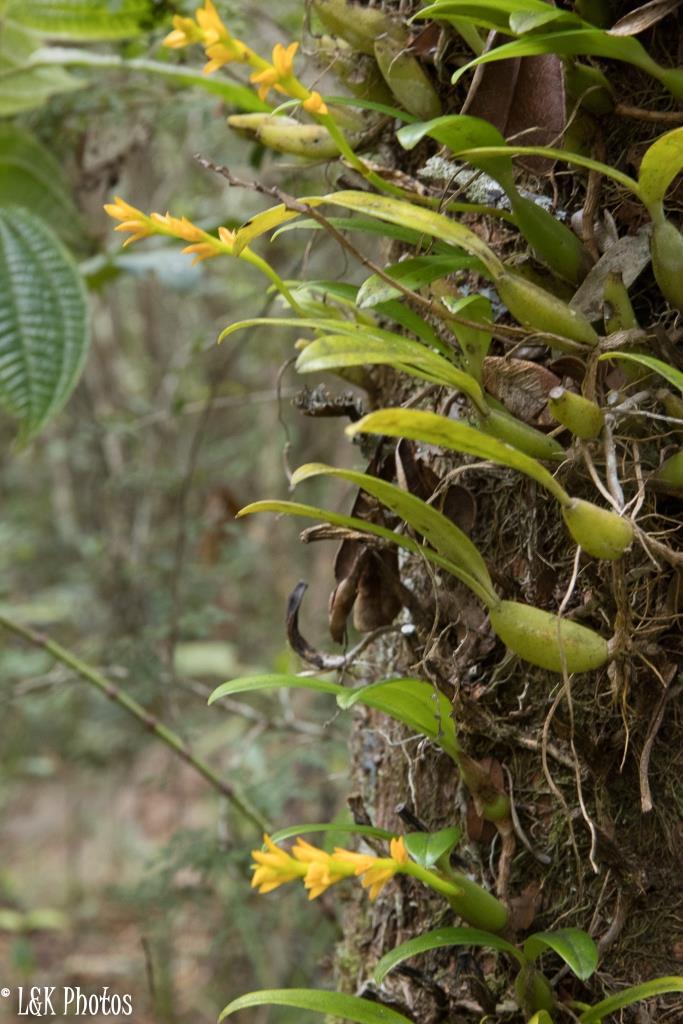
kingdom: Plantae
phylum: Tracheophyta
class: Liliopsida
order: Asparagales
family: Orchidaceae
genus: Bulbophyllum
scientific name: Bulbophyllum auriflorum
